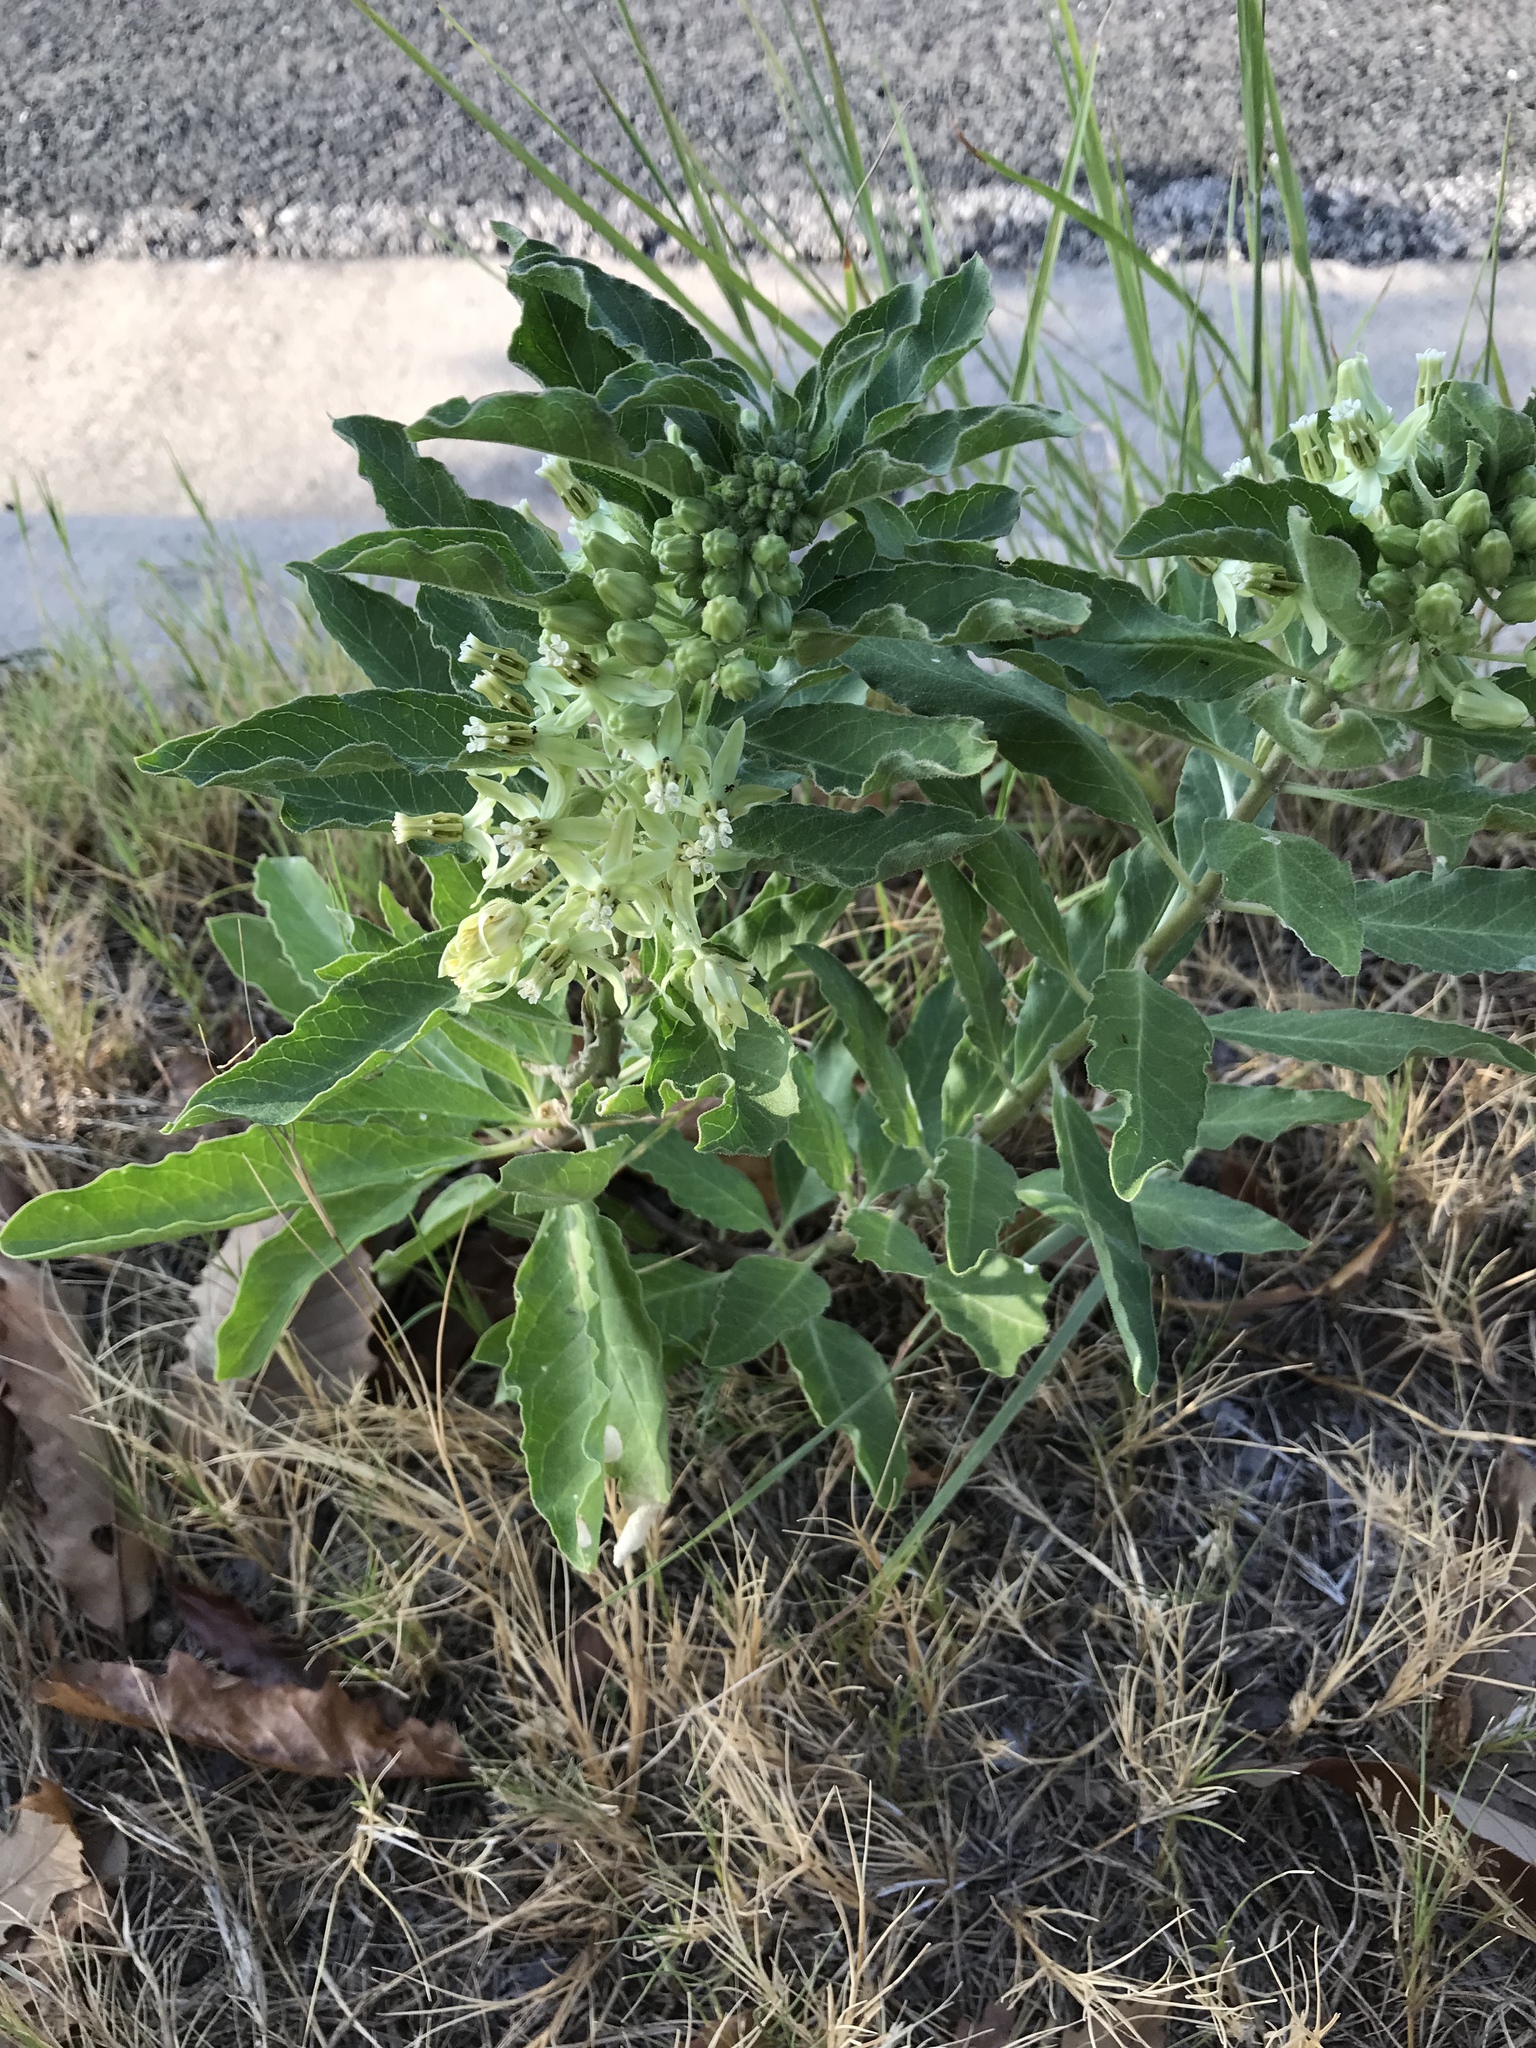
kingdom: Plantae
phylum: Tracheophyta
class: Magnoliopsida
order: Gentianales
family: Apocynaceae
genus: Asclepias
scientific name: Asclepias oenotheroides
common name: Zizotes milkweed
